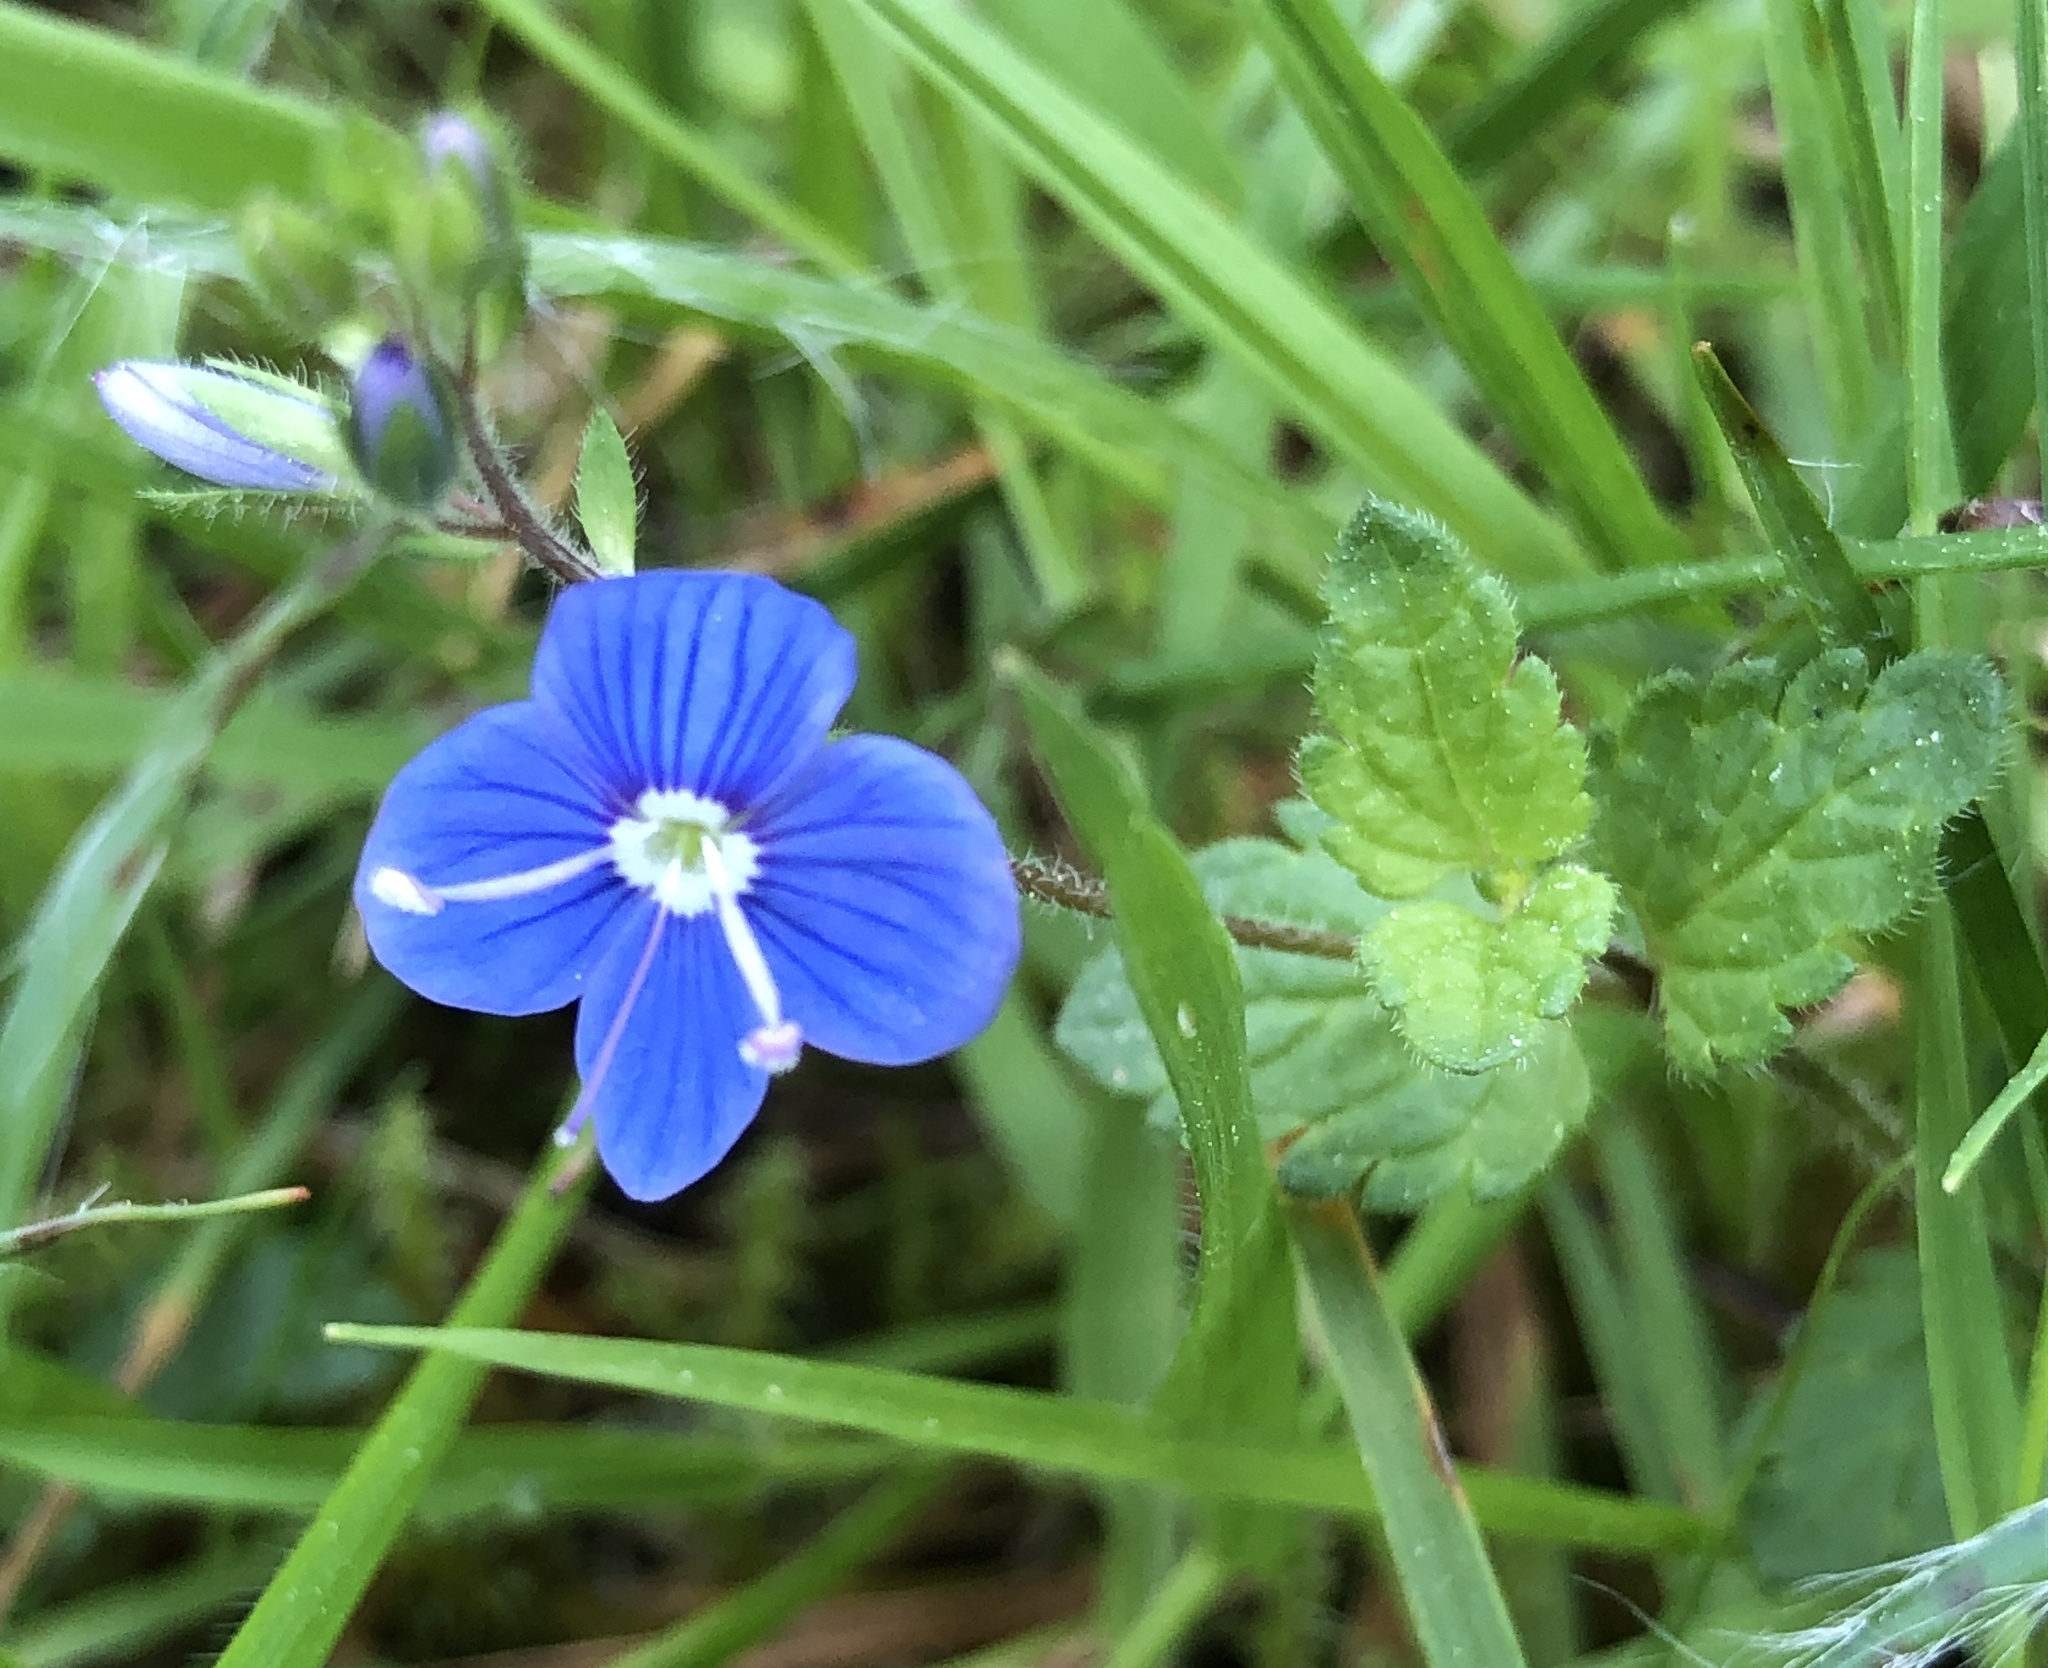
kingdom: Plantae
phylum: Tracheophyta
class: Magnoliopsida
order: Lamiales
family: Plantaginaceae
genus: Veronica
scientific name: Veronica chamaedrys
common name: Germander speedwell
